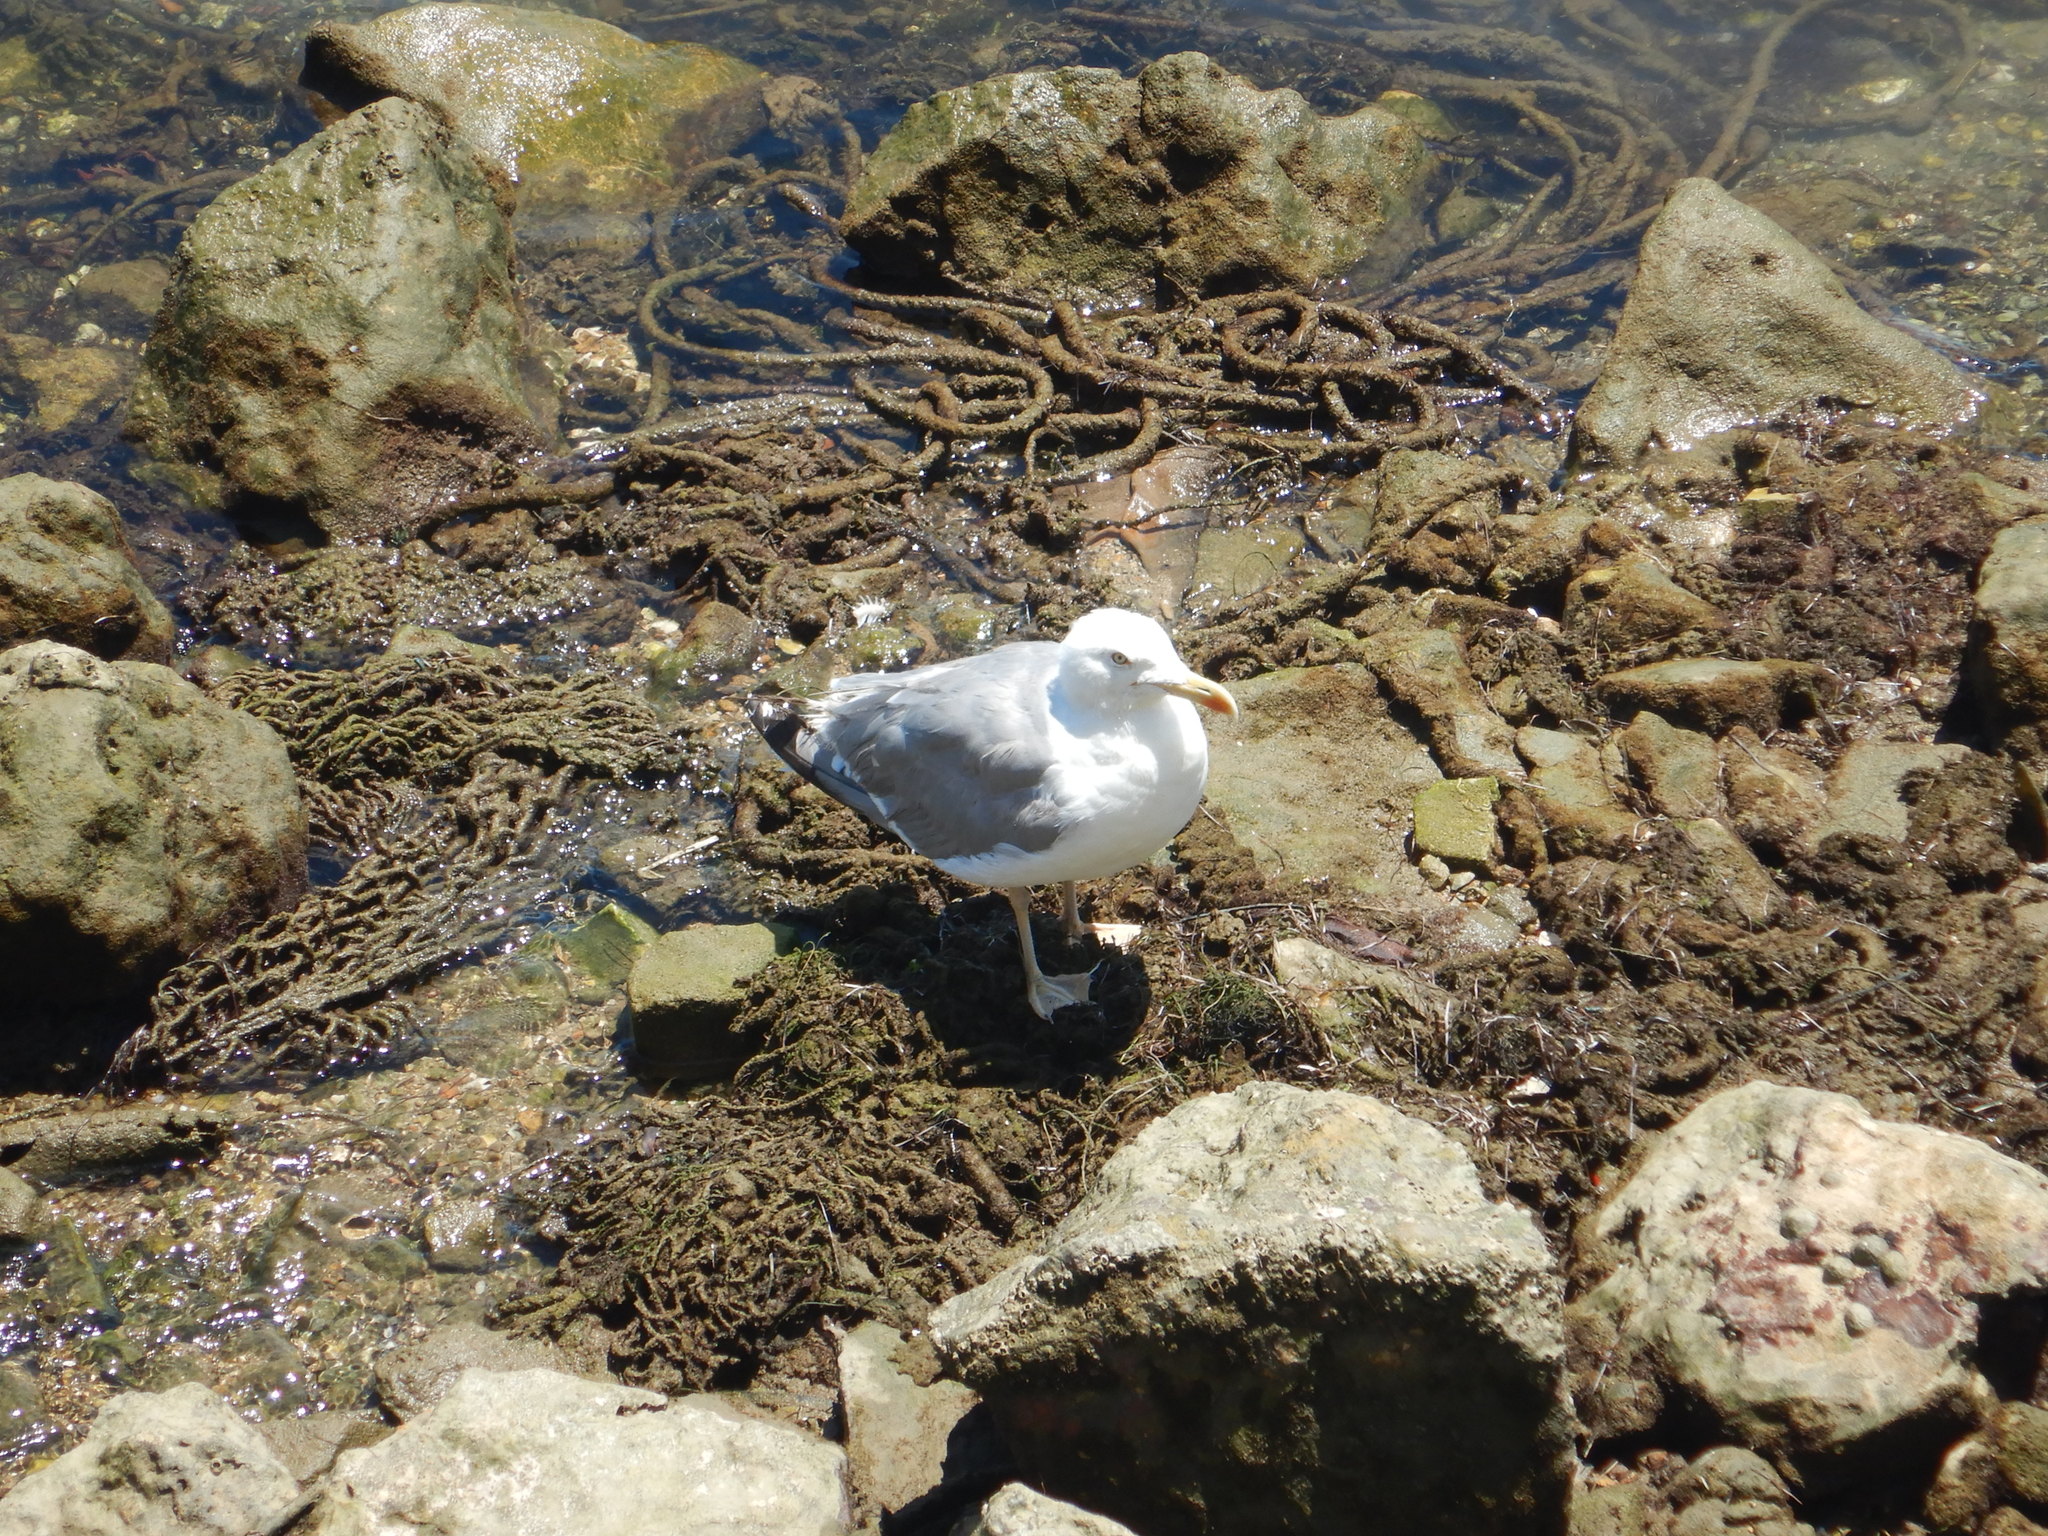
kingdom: Animalia
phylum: Chordata
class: Aves
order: Charadriiformes
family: Laridae
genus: Larus
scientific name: Larus michahellis
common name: Yellow-legged gull
